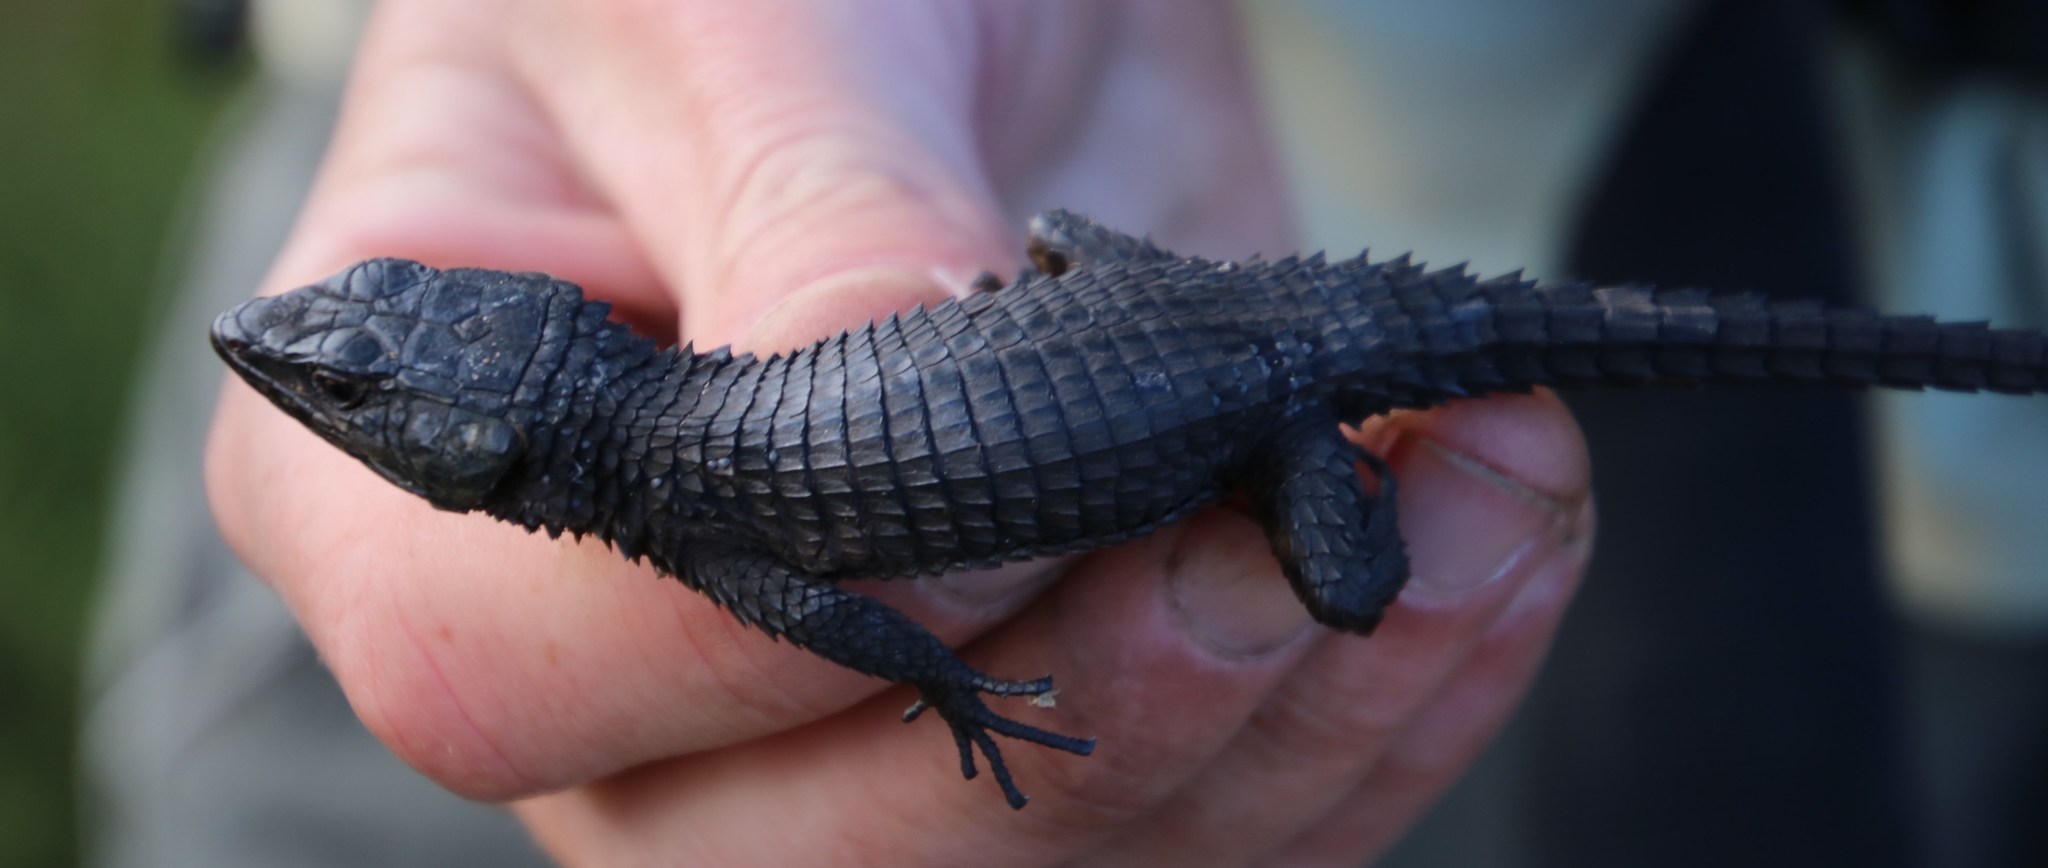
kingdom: Animalia
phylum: Chordata
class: Squamata
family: Cordylidae
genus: Cordylus
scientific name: Cordylus niger
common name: Black girdled lizard
